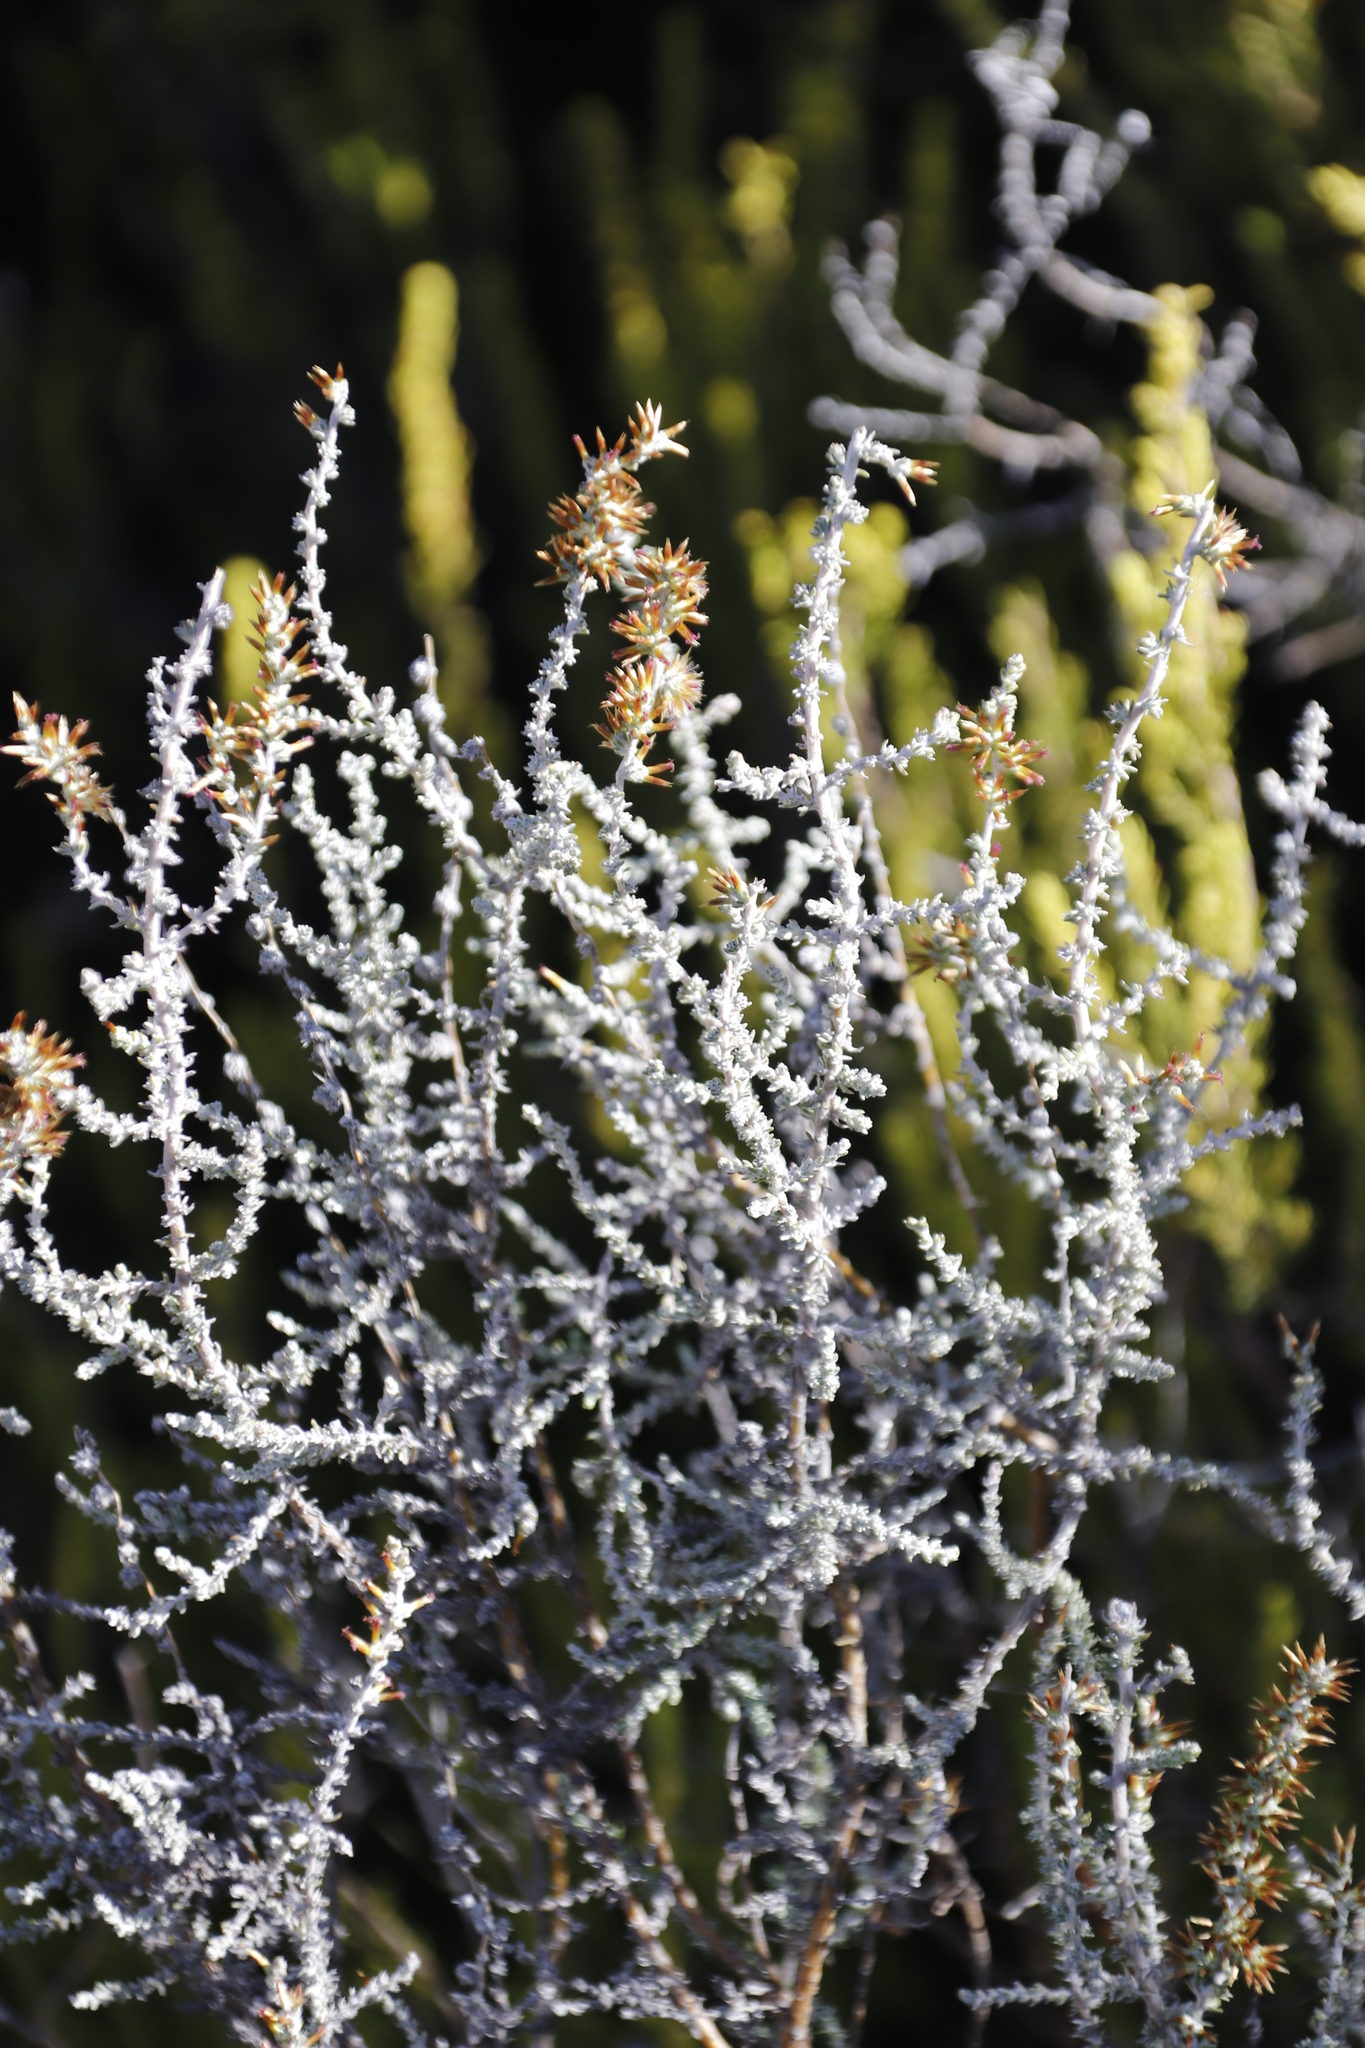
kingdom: Plantae
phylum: Tracheophyta
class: Magnoliopsida
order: Asterales
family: Asteraceae
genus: Seriphium
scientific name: Seriphium
